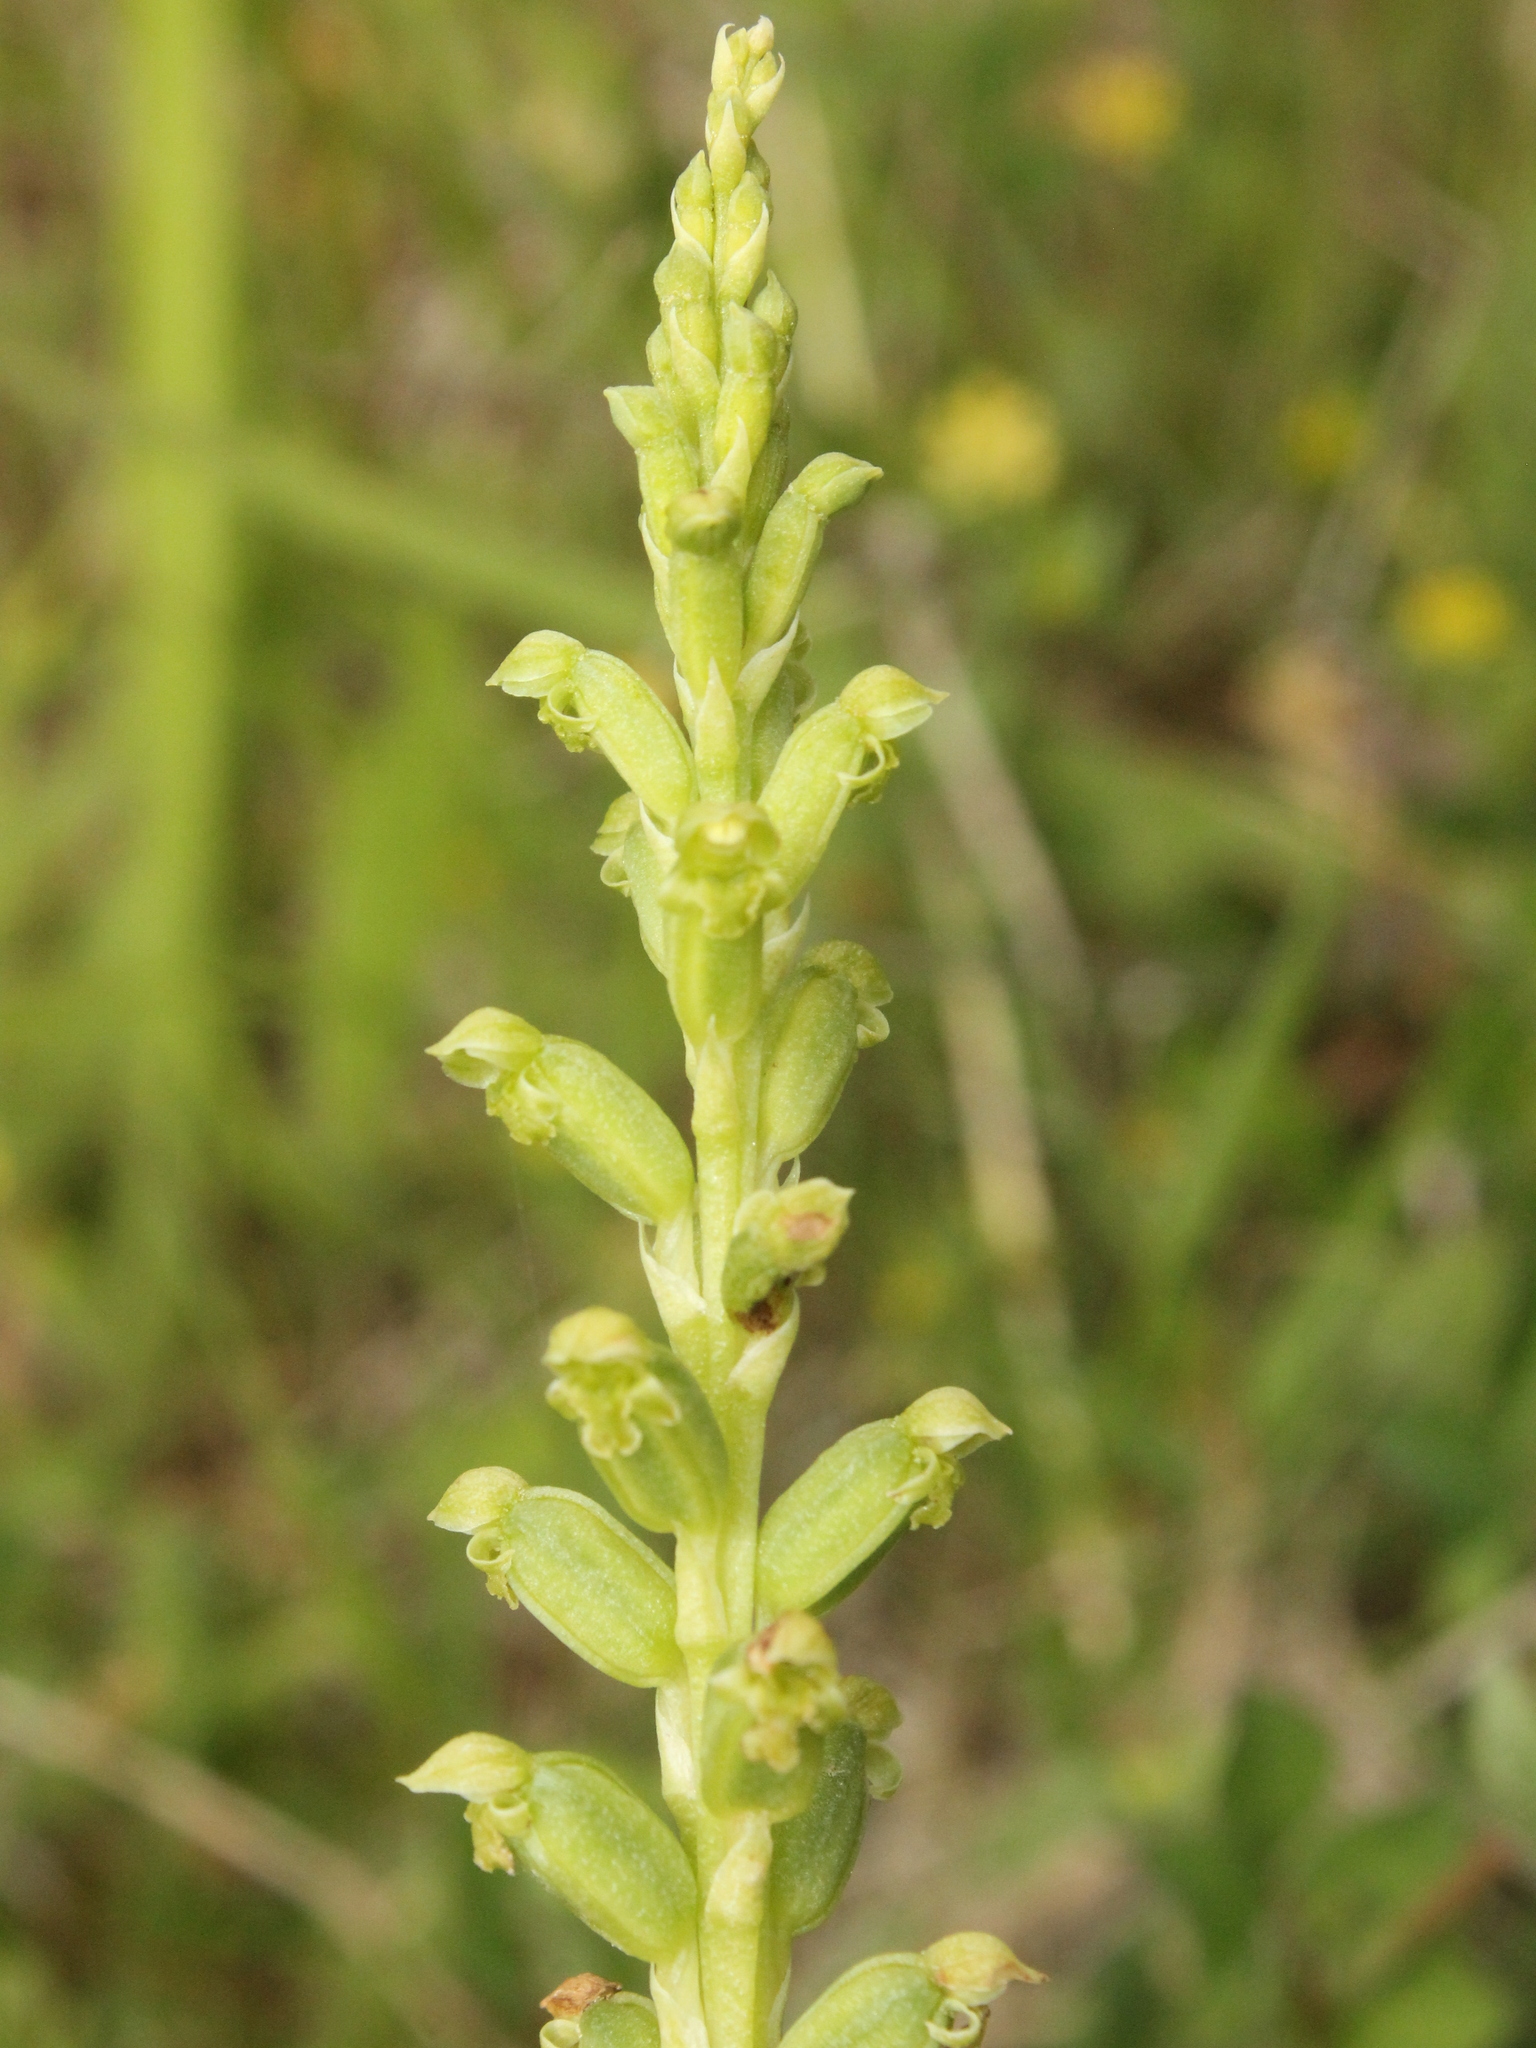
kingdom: Plantae
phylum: Tracheophyta
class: Liliopsida
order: Asparagales
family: Orchidaceae
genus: Microtis
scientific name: Microtis unifolia
